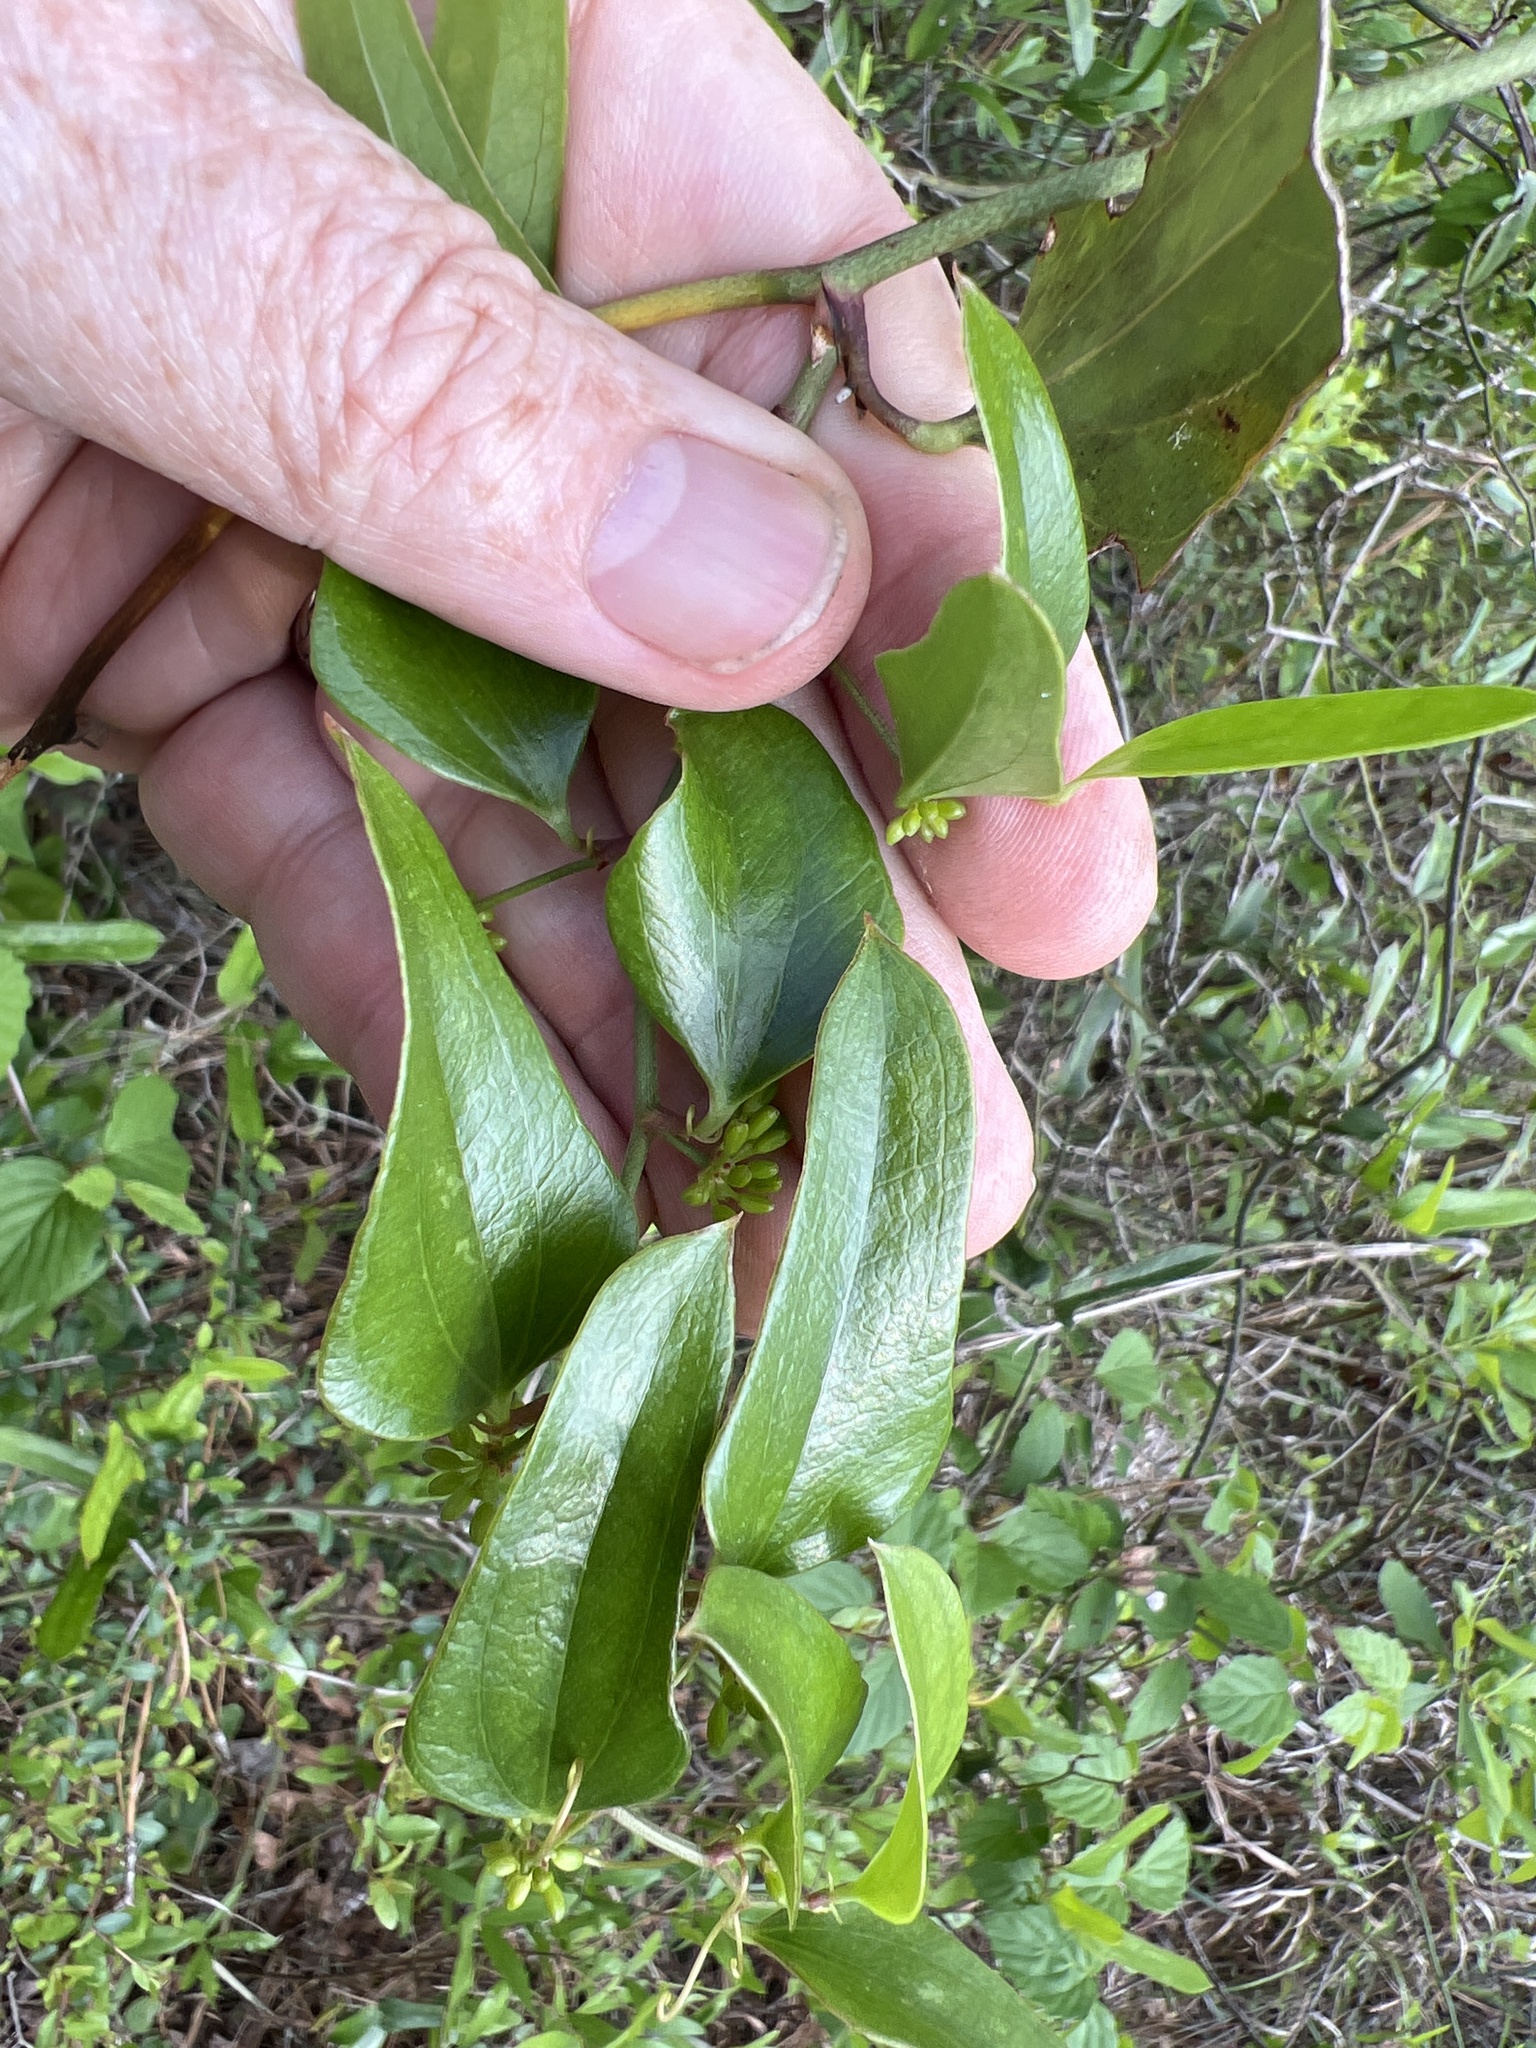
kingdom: Plantae
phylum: Tracheophyta
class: Liliopsida
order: Liliales
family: Smilacaceae
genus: Smilax
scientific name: Smilax auriculata
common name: Wild bamboo
